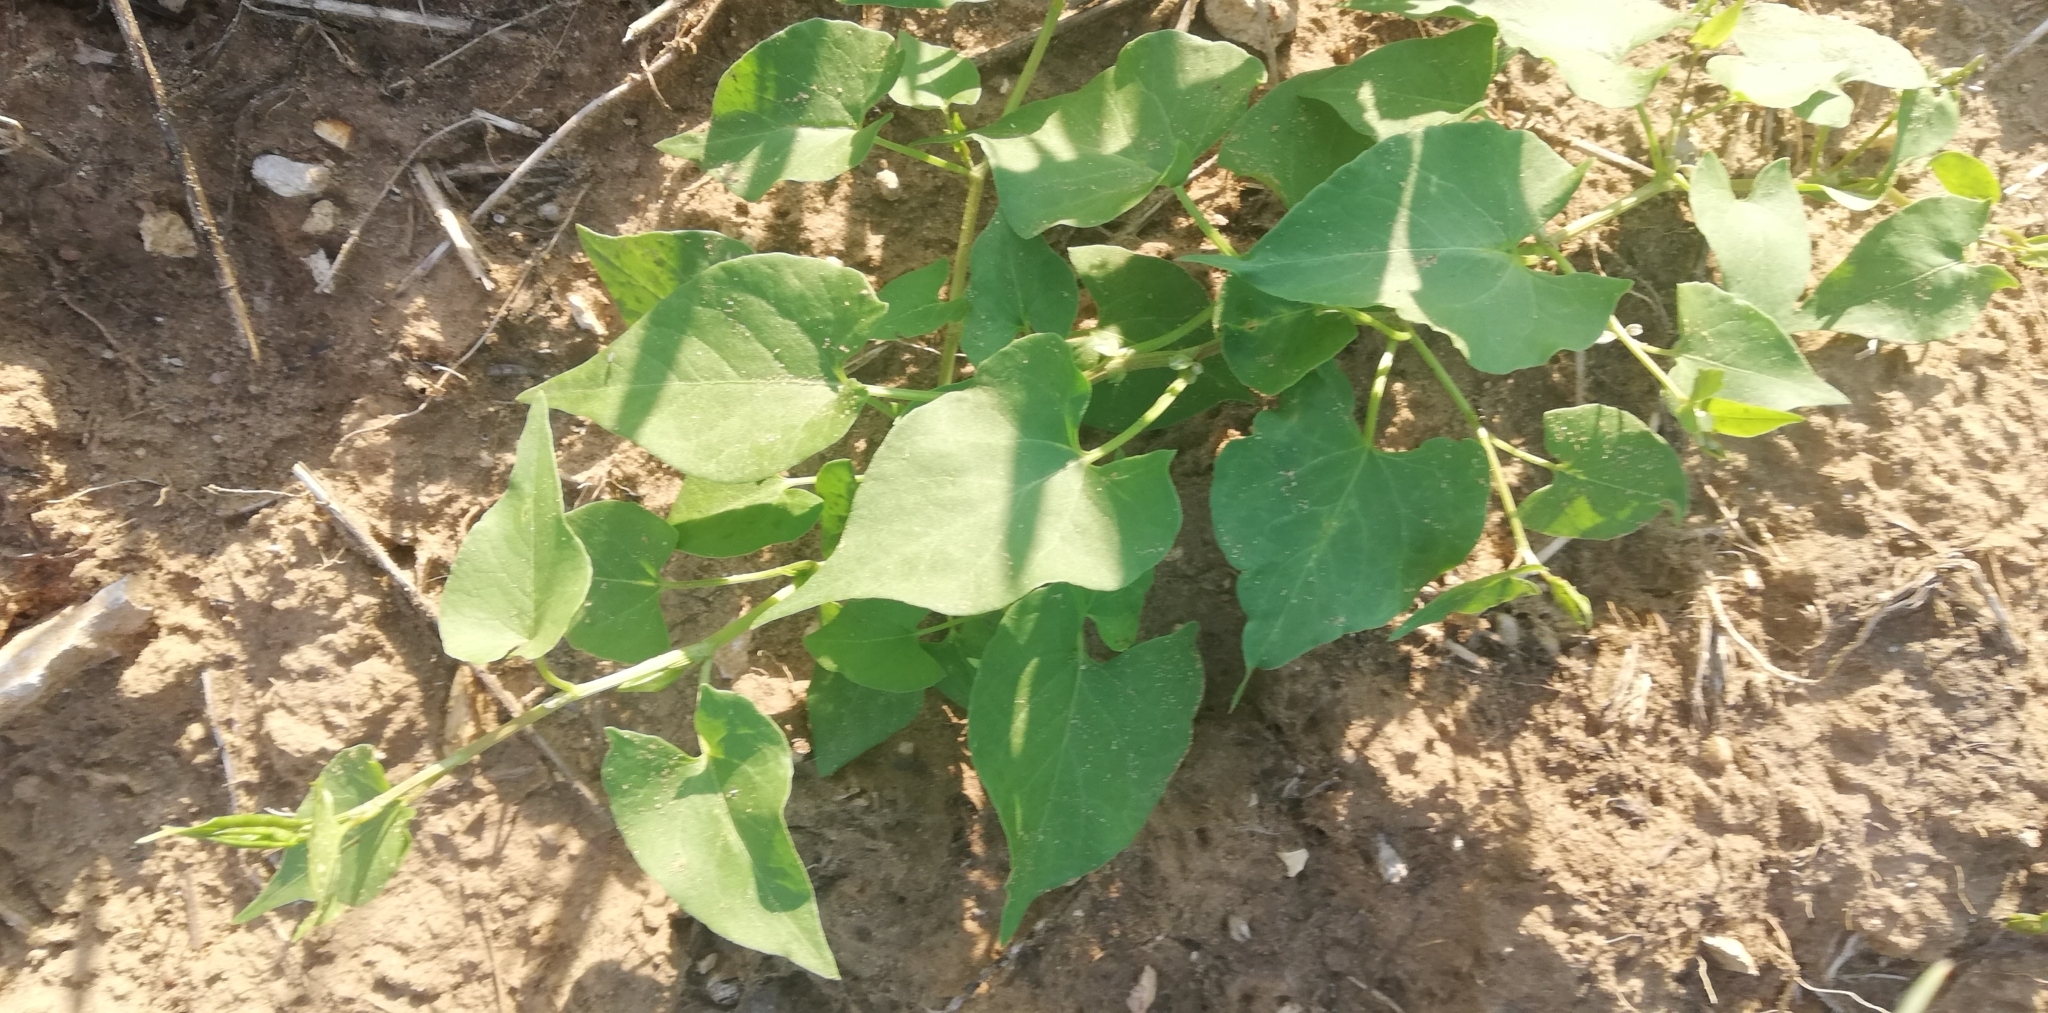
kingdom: Plantae
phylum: Tracheophyta
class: Magnoliopsida
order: Caryophyllales
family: Polygonaceae
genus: Fallopia
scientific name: Fallopia convolvulus
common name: Black bindweed
